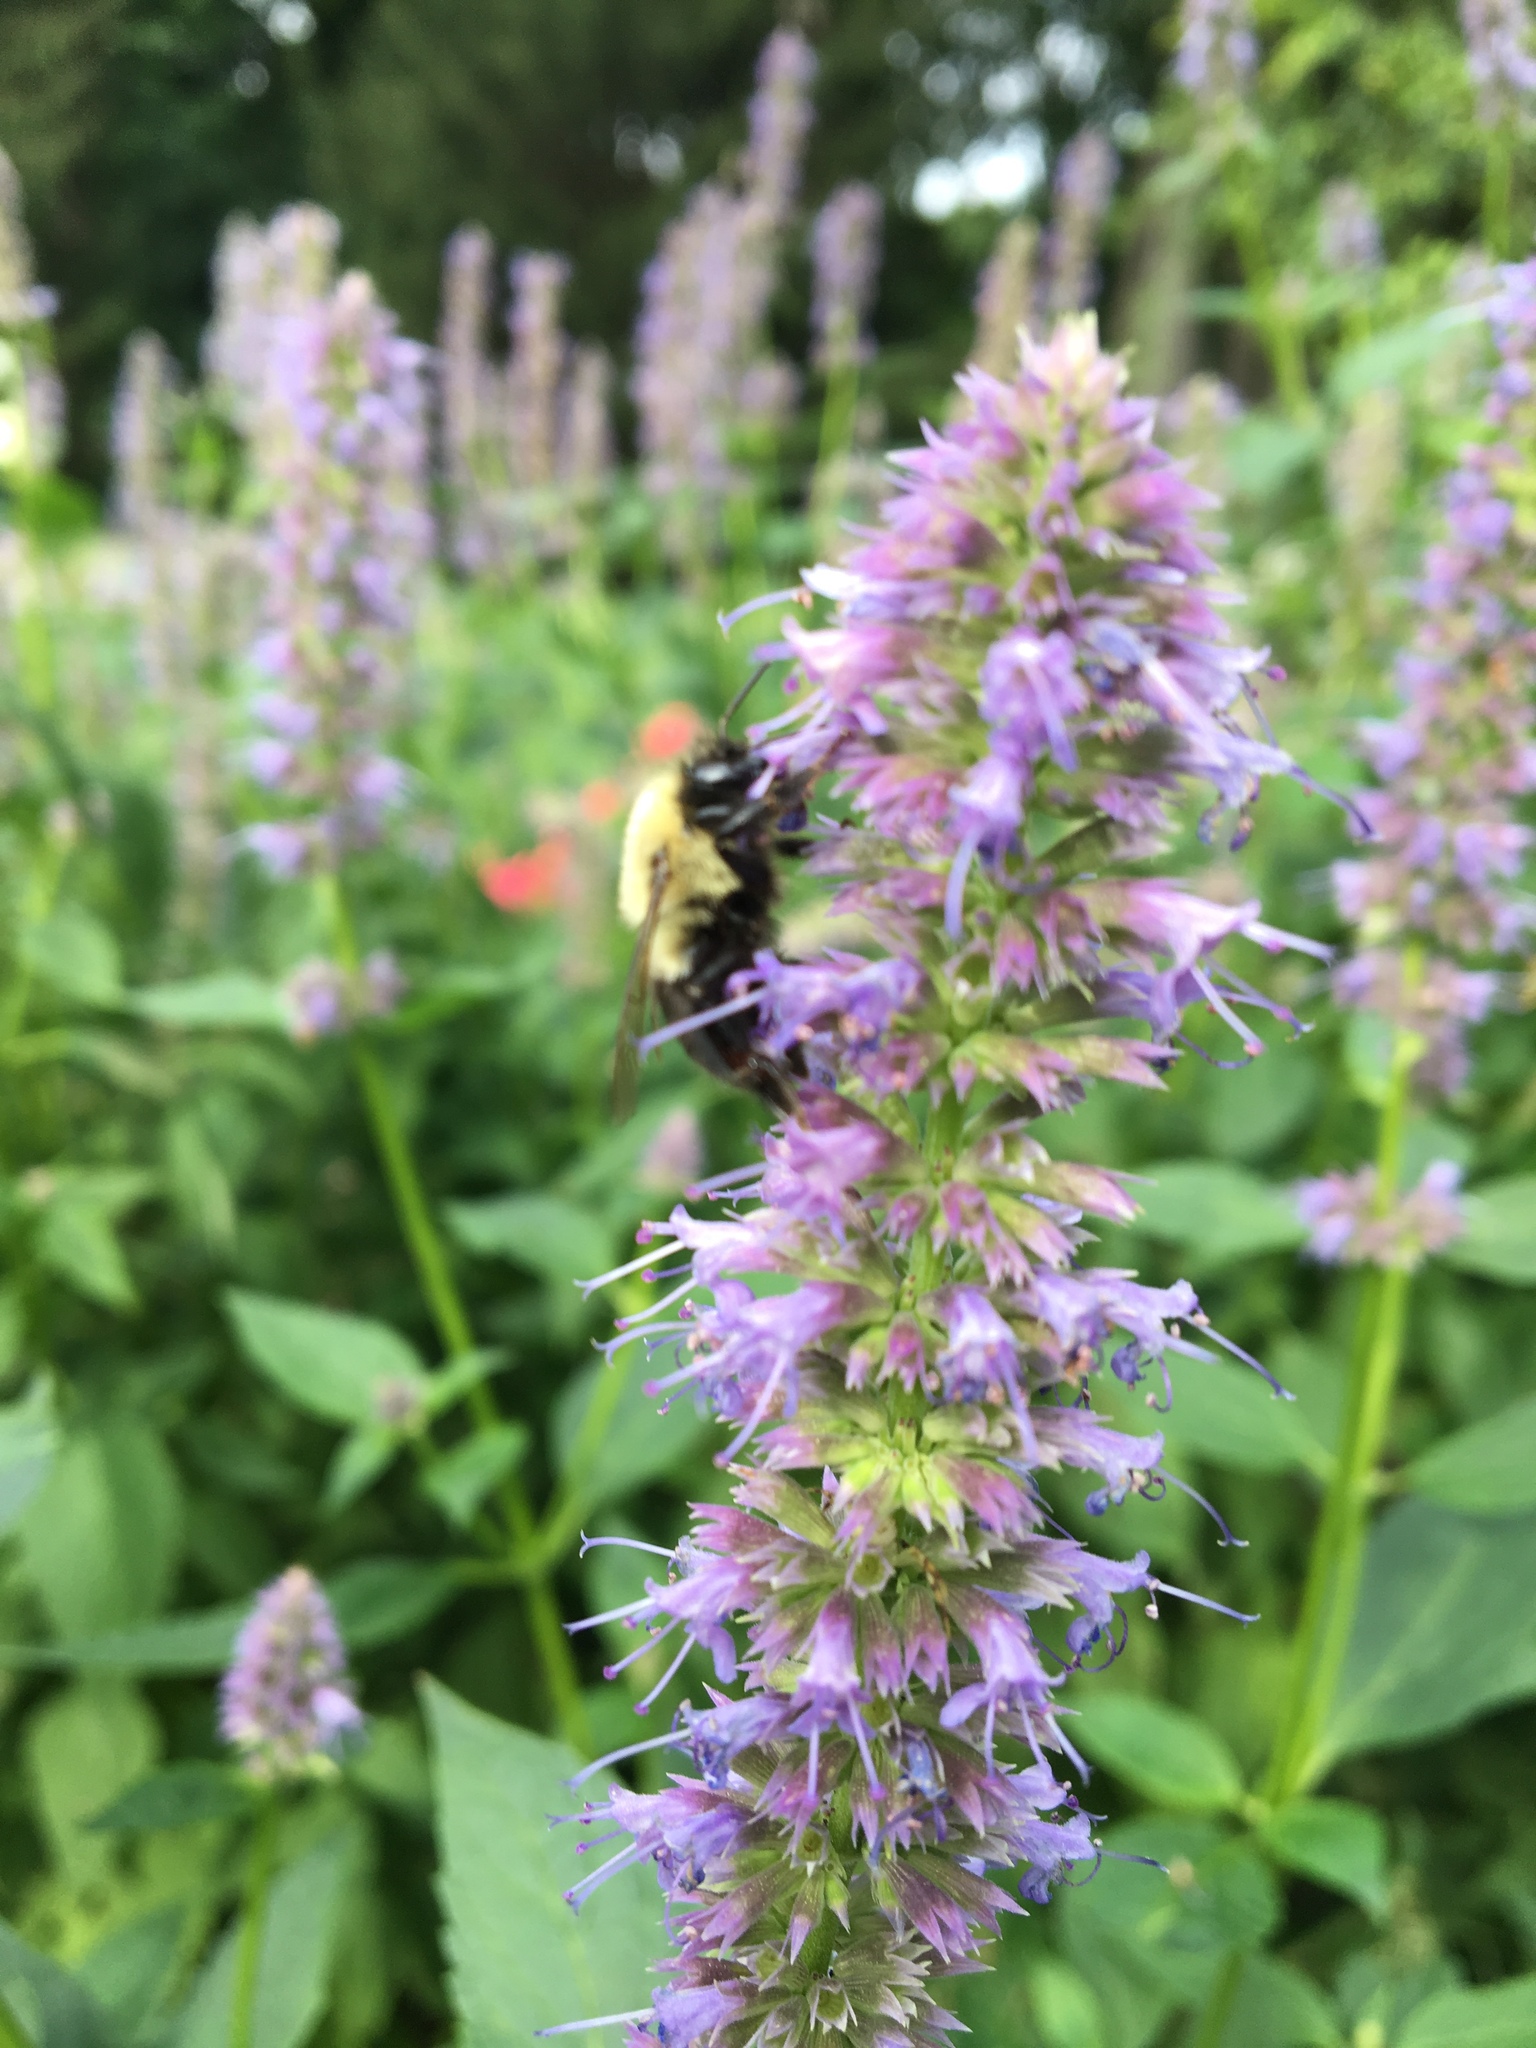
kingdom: Animalia
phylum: Arthropoda
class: Insecta
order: Hymenoptera
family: Apidae
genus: Bombus
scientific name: Bombus impatiens
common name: Common eastern bumble bee
